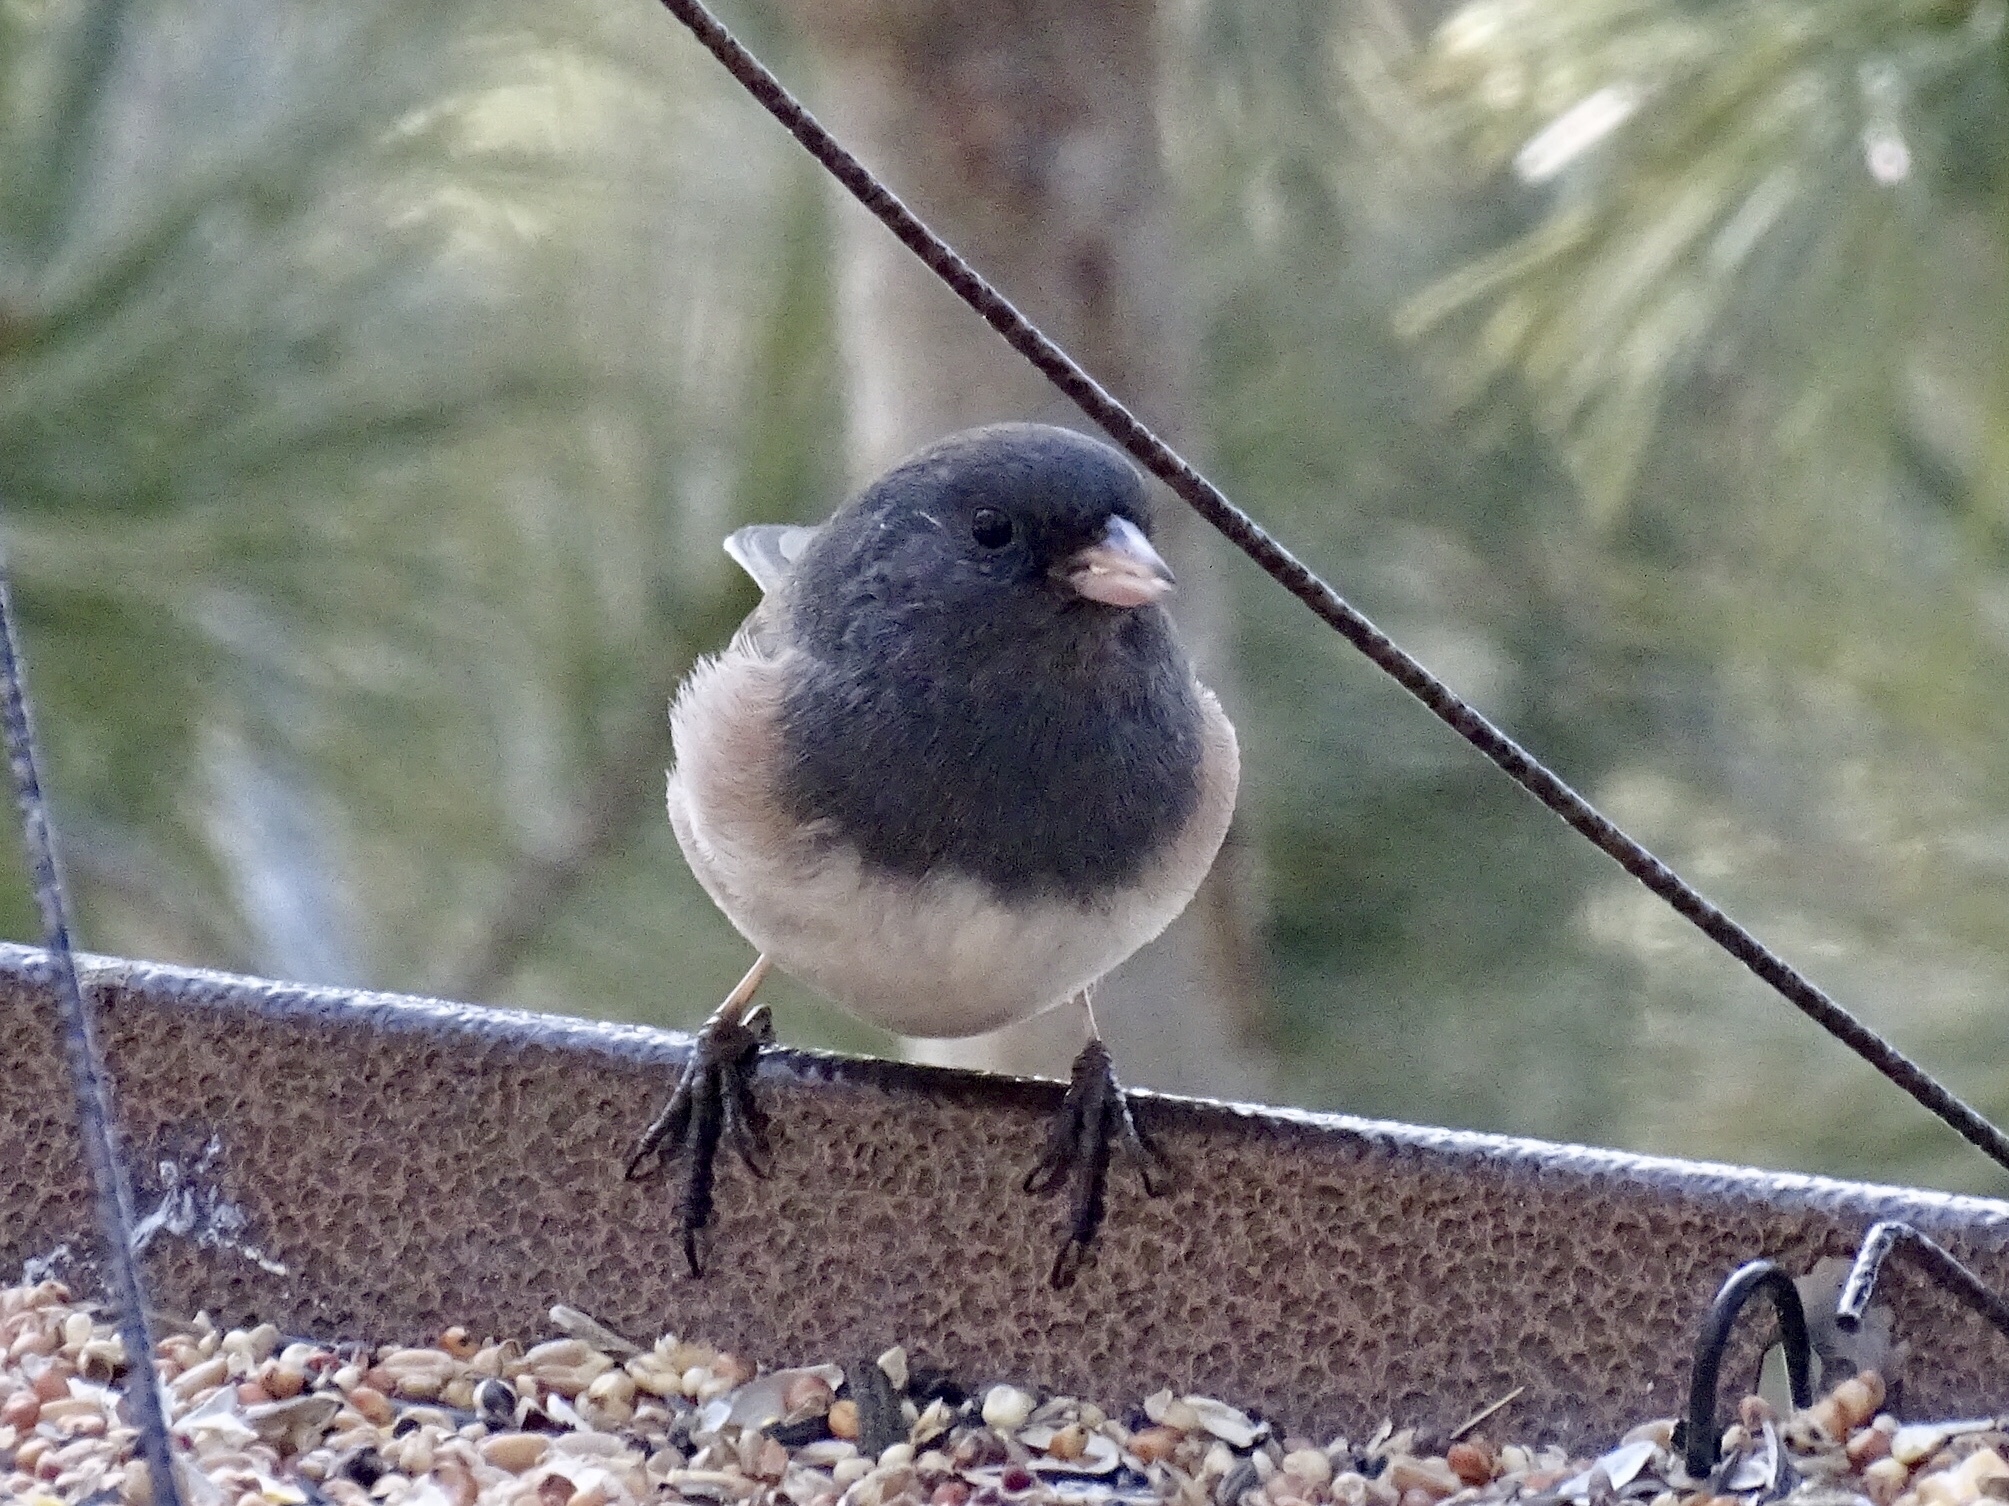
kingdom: Animalia
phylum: Chordata
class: Aves
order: Passeriformes
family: Passerellidae
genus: Junco
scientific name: Junco hyemalis
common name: Dark-eyed junco
